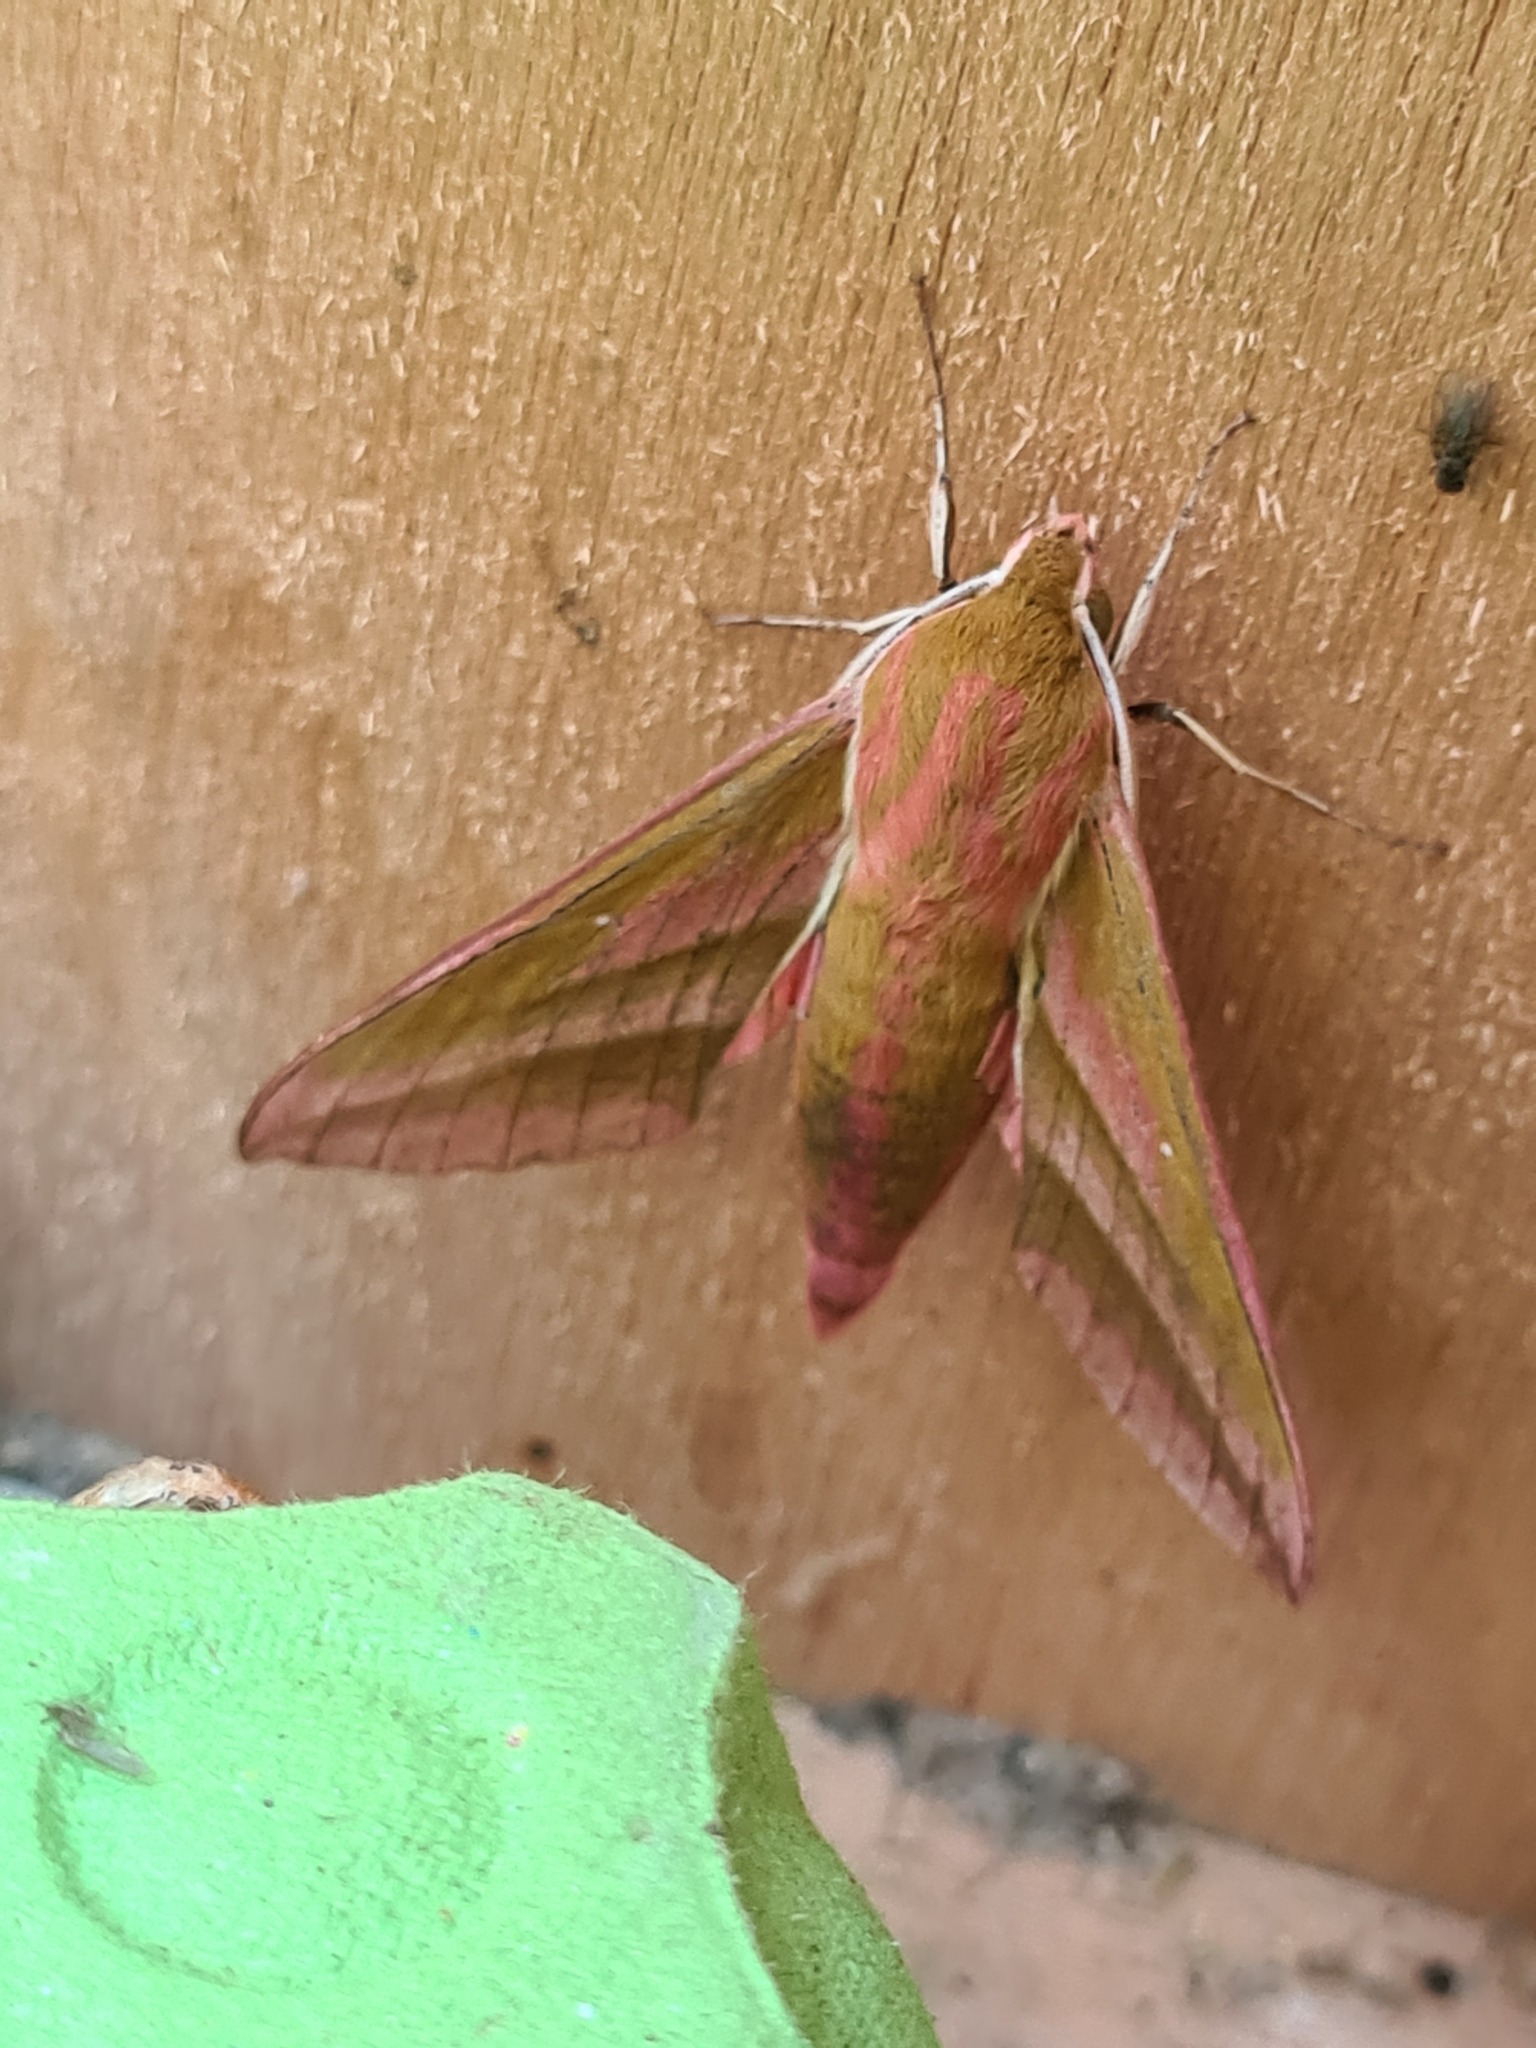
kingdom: Animalia
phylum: Arthropoda
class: Insecta
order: Lepidoptera
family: Sphingidae
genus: Deilephila
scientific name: Deilephila elpenor
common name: Elephant hawk-moth
